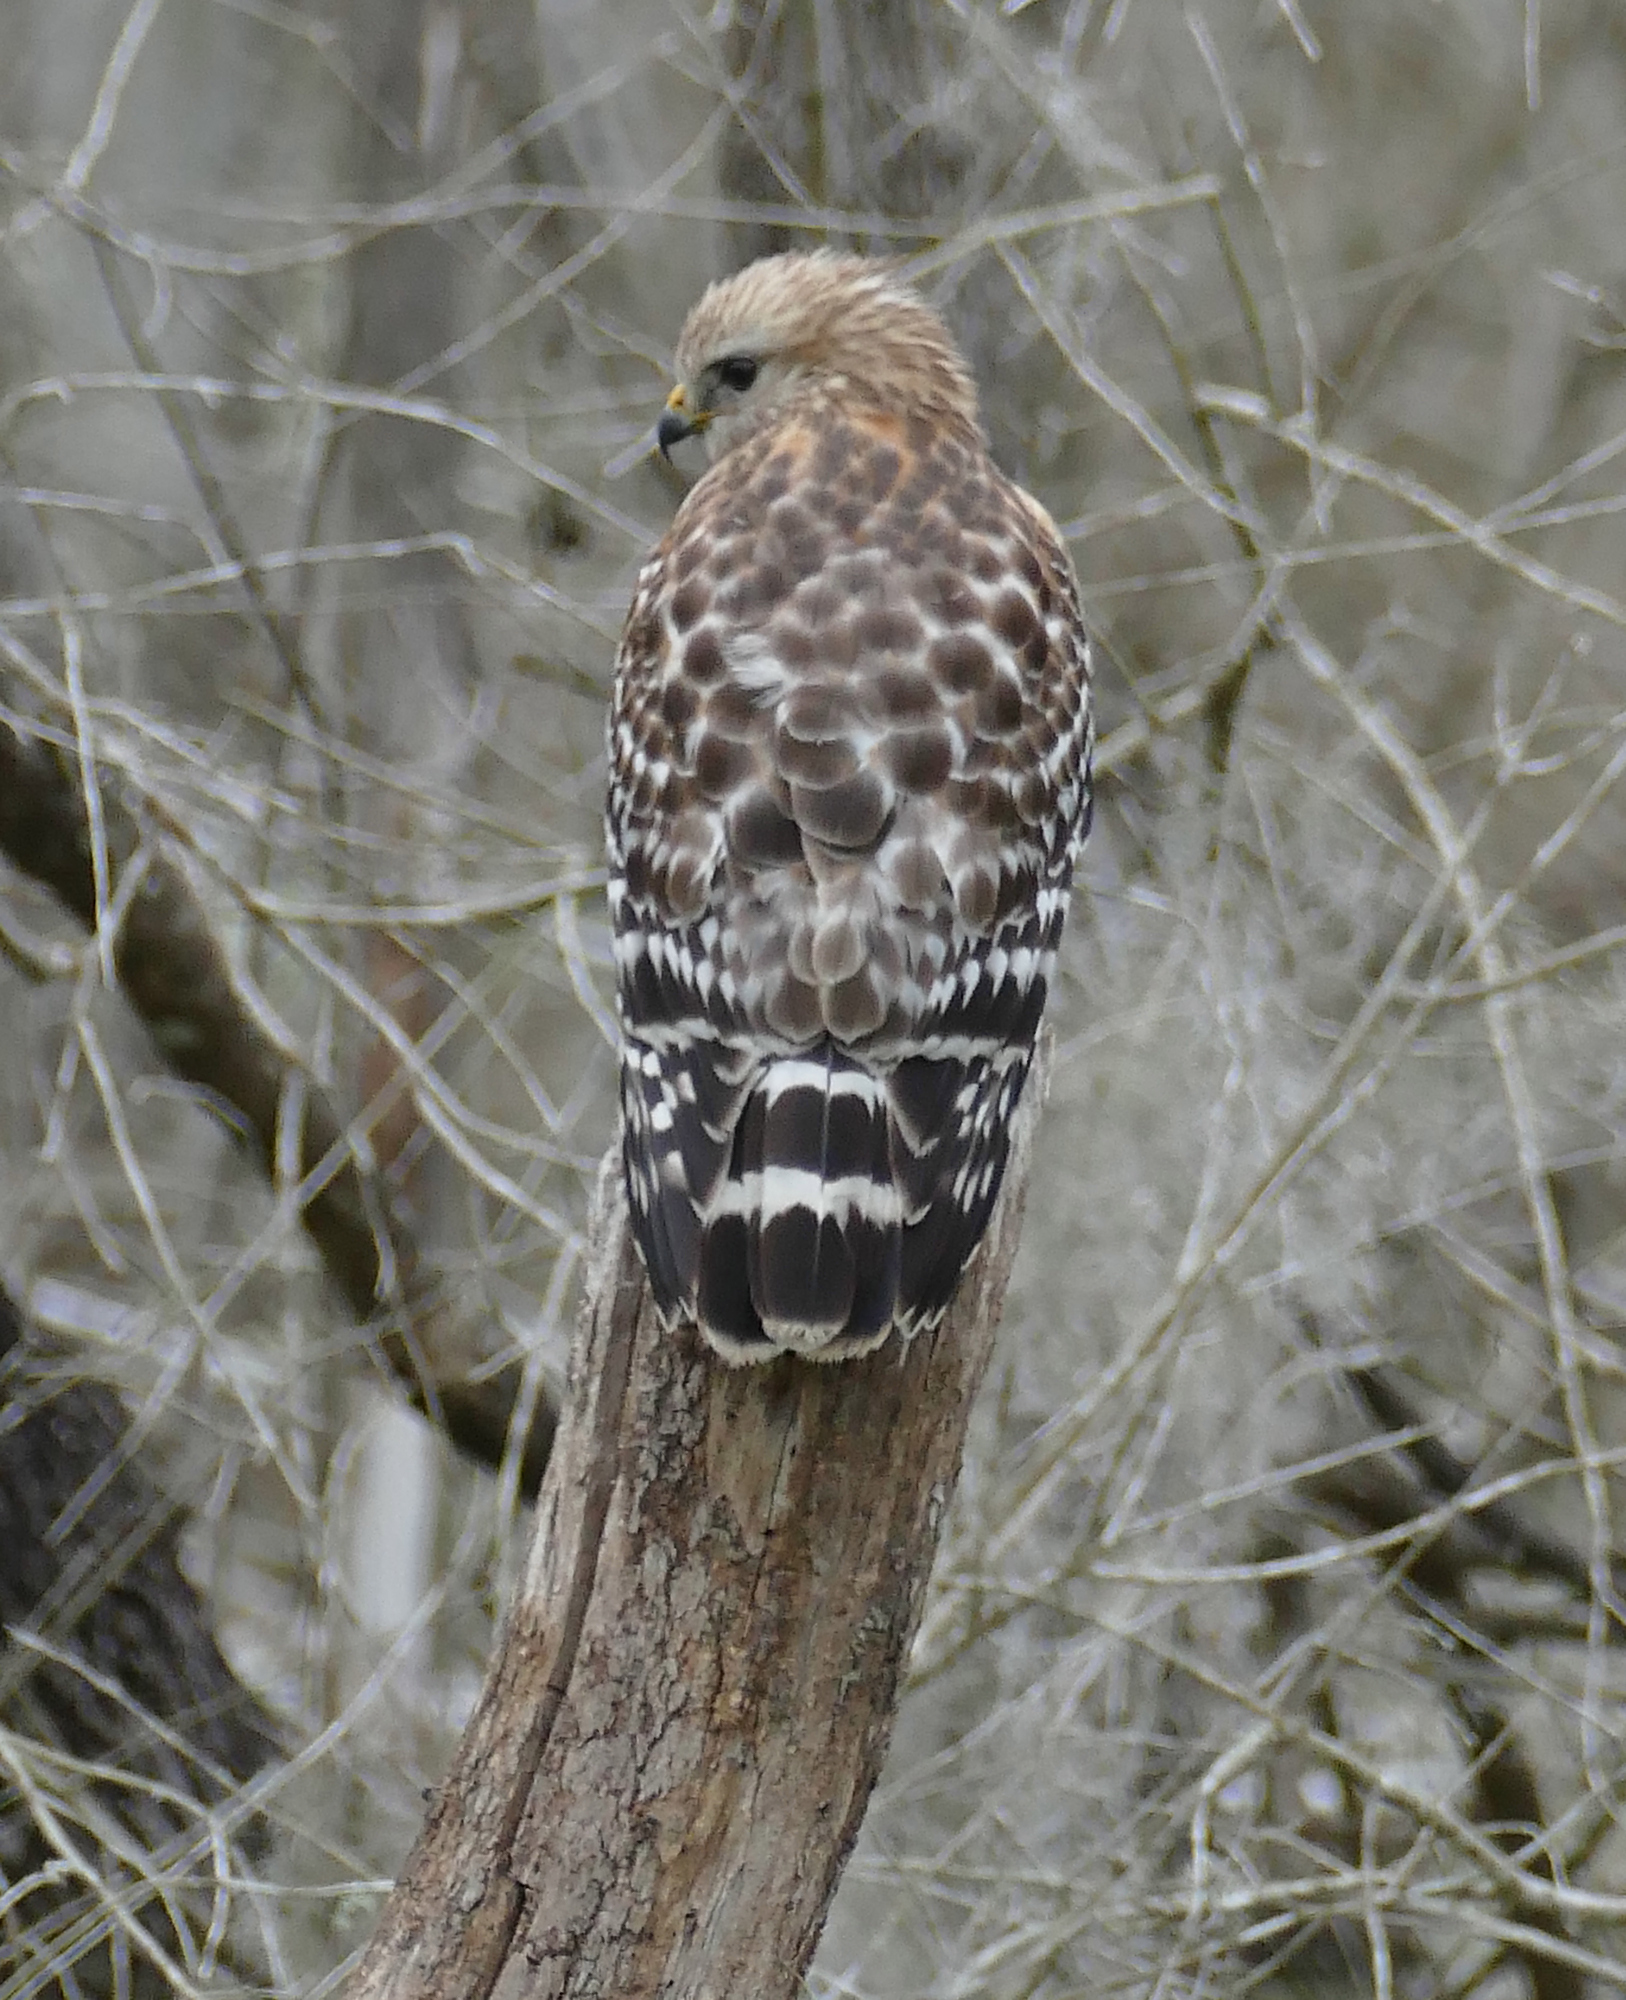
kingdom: Animalia
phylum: Chordata
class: Aves
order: Accipitriformes
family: Accipitridae
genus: Buteo
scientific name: Buteo lineatus
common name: Red-shouldered hawk
